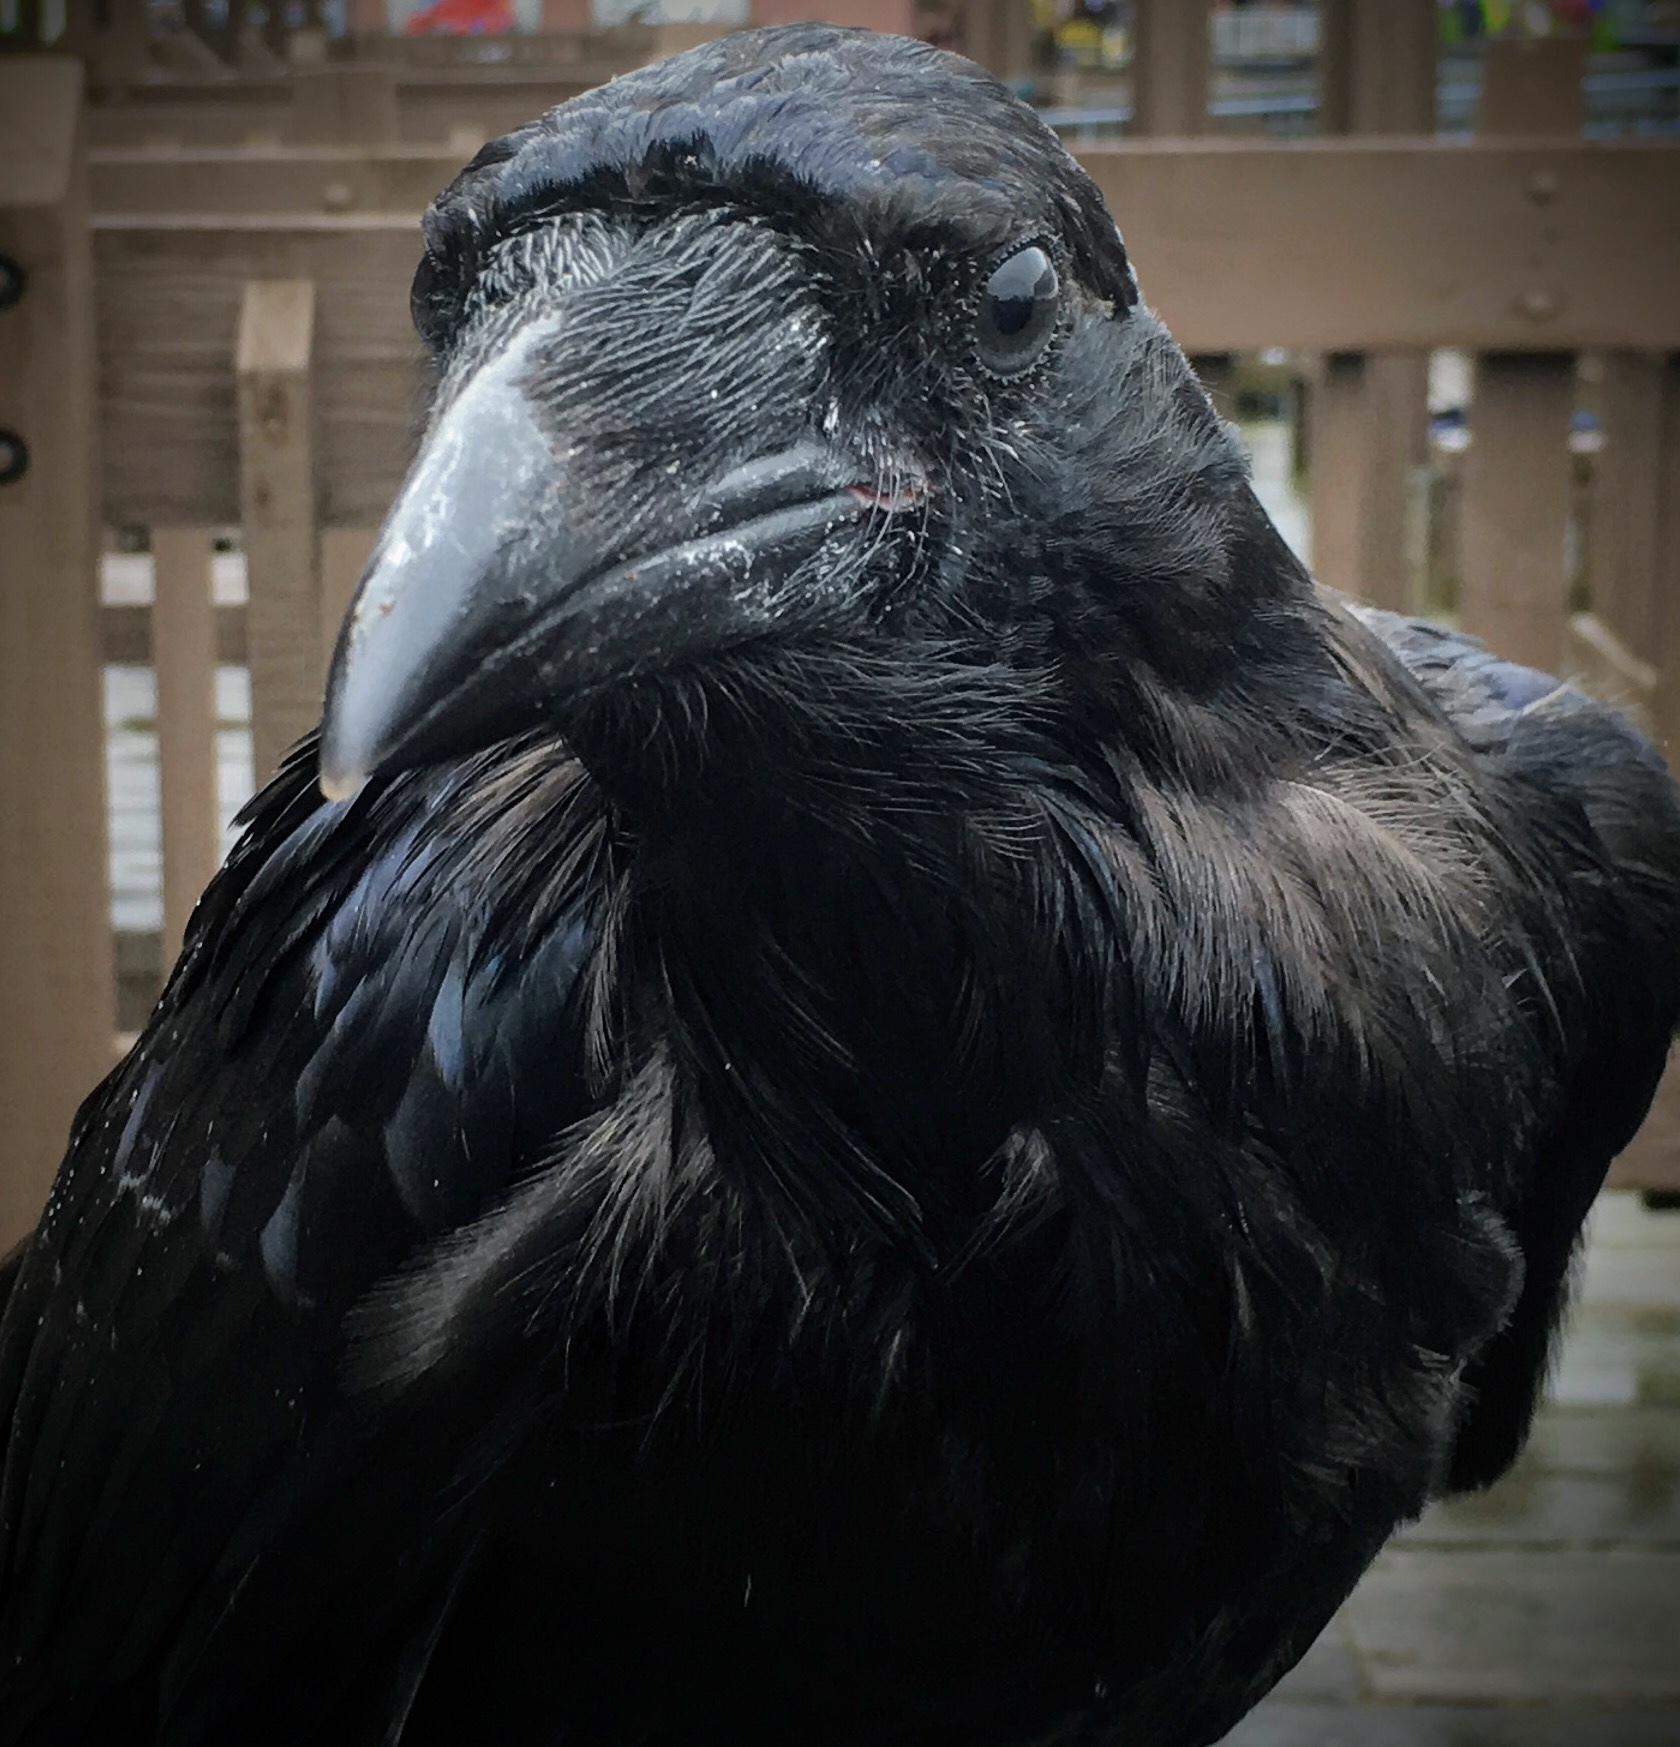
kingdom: Animalia
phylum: Chordata
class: Aves
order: Passeriformes
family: Corvidae
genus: Corvus
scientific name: Corvus corax
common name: Common raven
